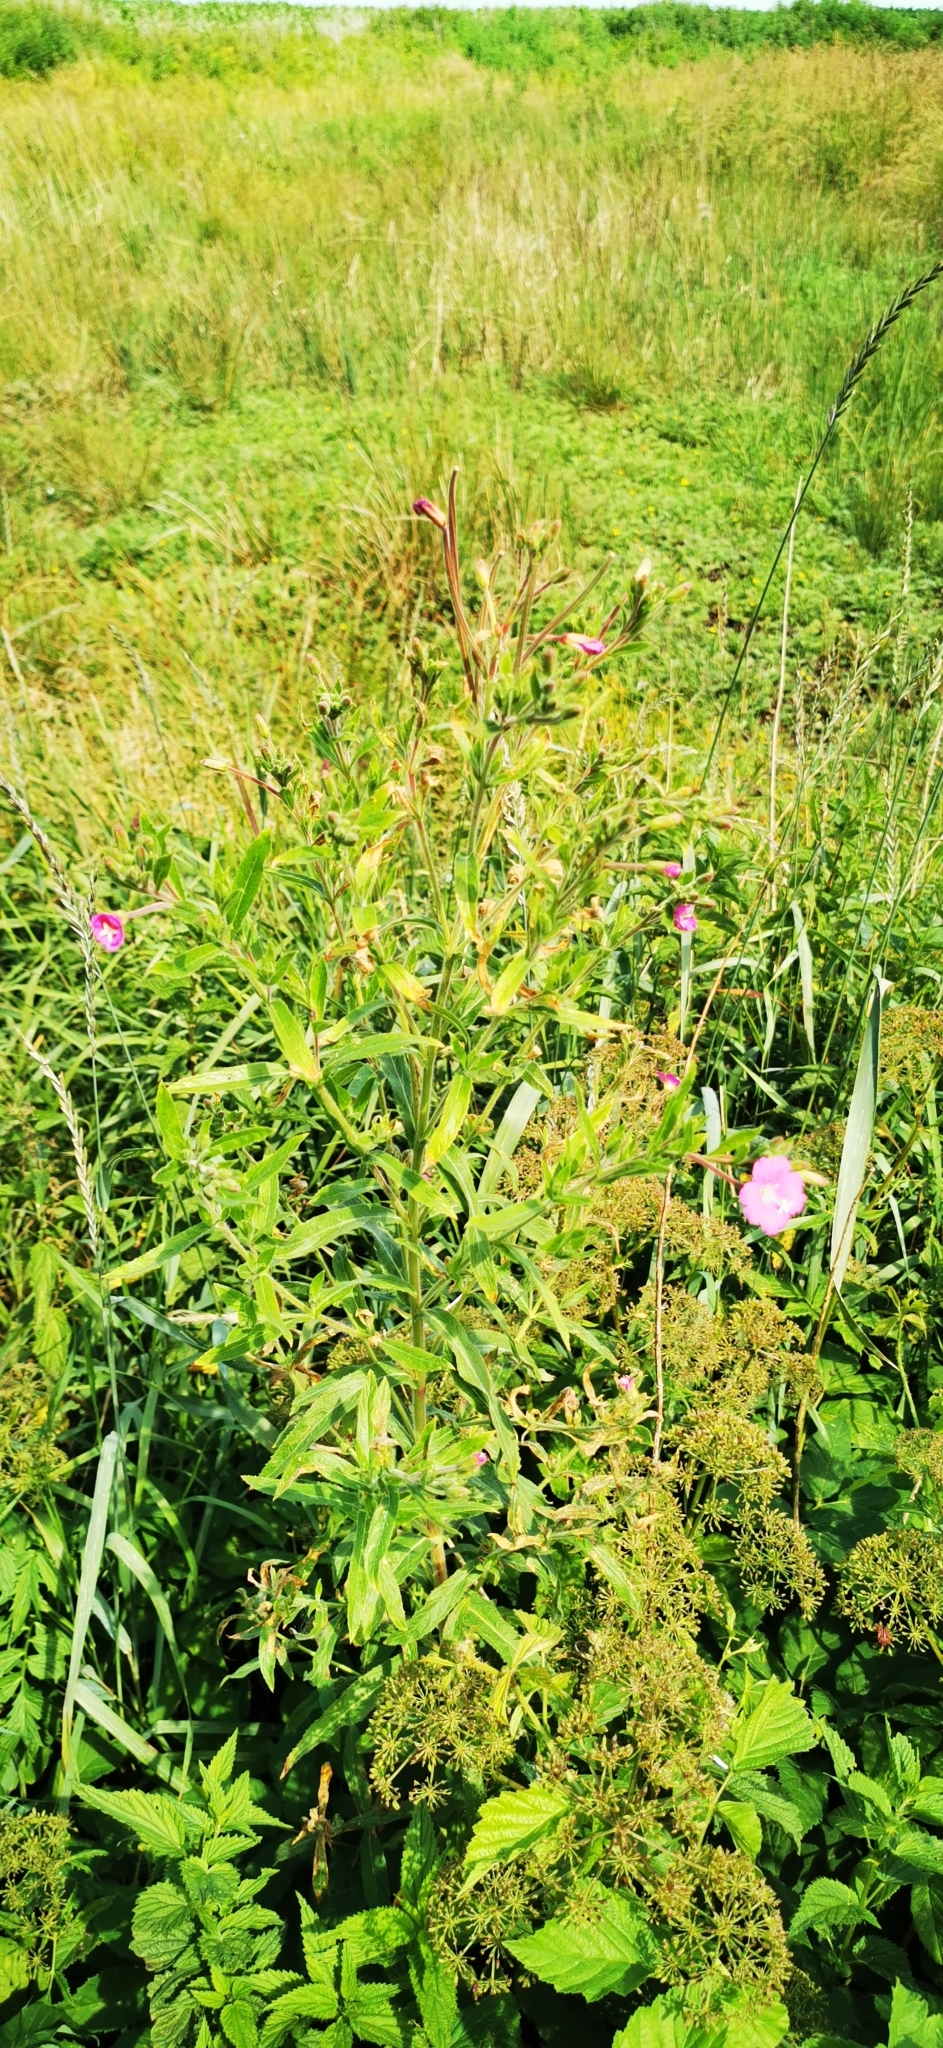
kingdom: Plantae
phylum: Tracheophyta
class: Magnoliopsida
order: Myrtales
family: Onagraceae
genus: Epilobium
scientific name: Epilobium hirsutum
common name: Great willowherb
